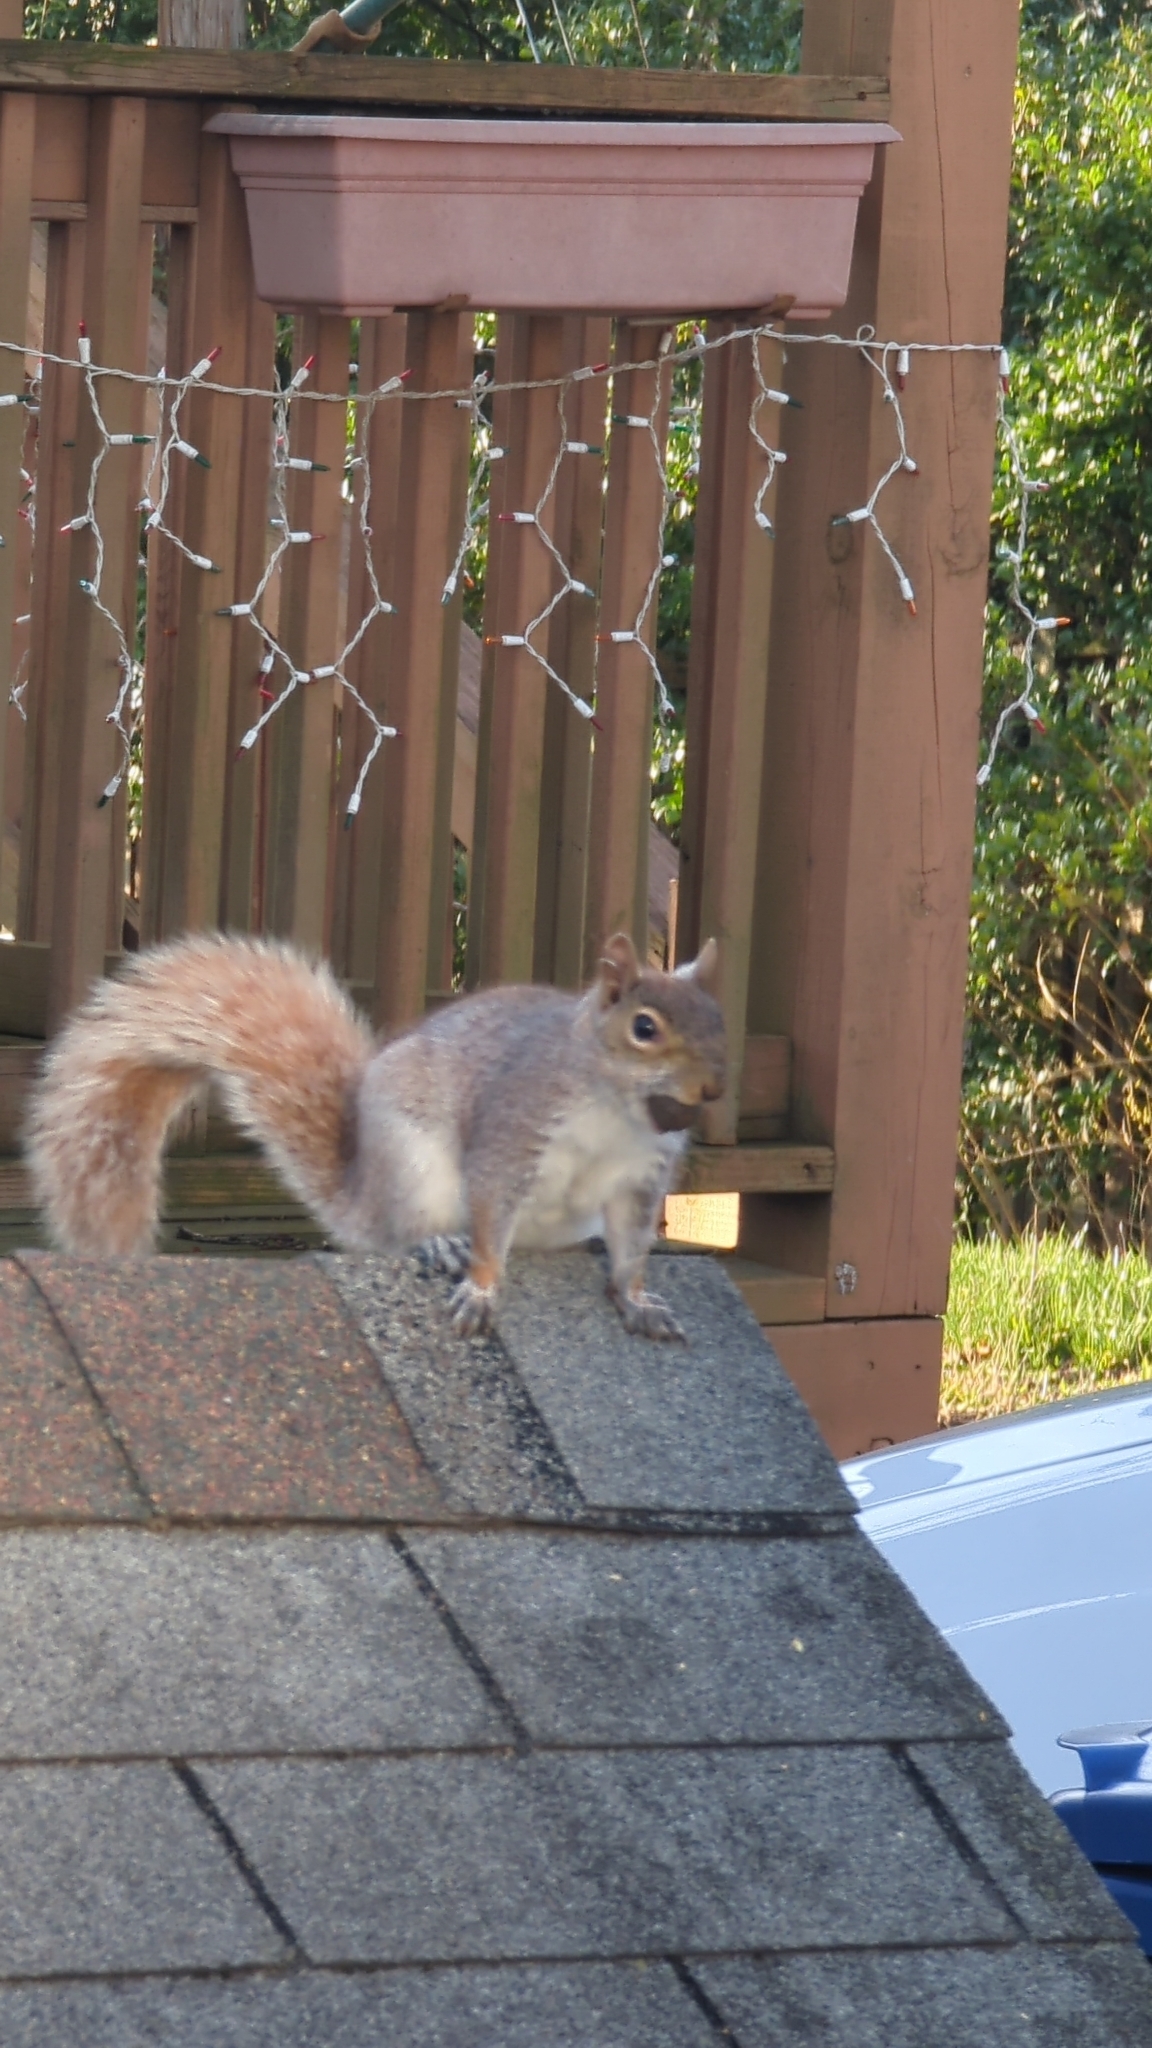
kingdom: Animalia
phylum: Chordata
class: Mammalia
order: Rodentia
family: Sciuridae
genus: Sciurus
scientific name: Sciurus carolinensis
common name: Eastern gray squirrel
